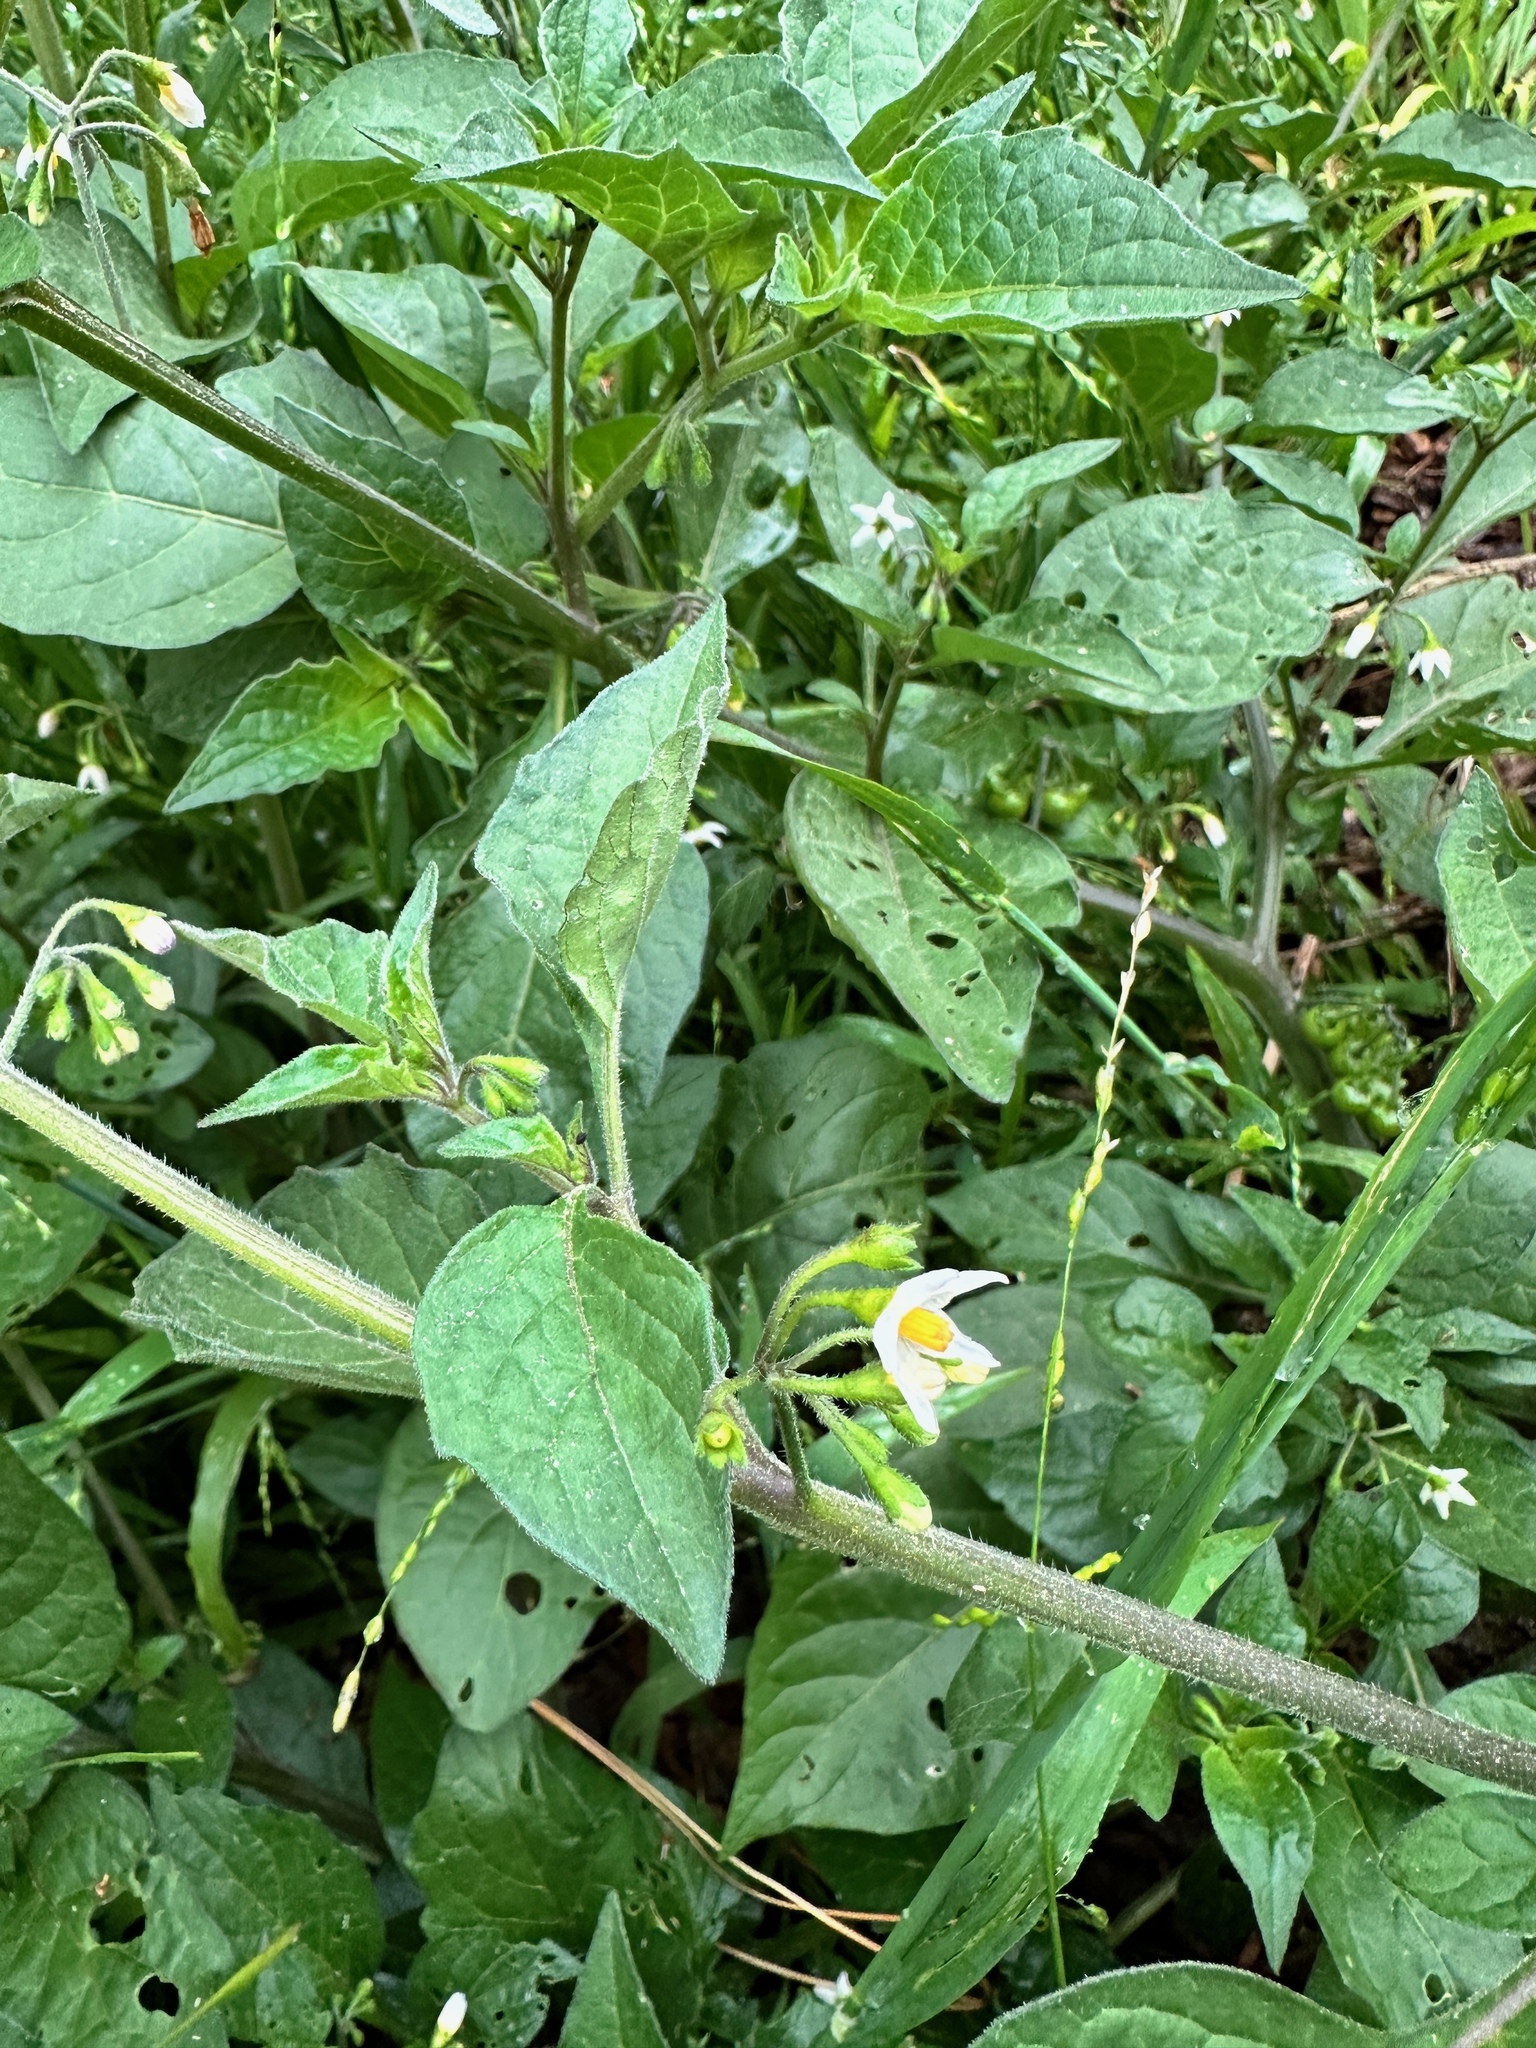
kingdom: Plantae
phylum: Tracheophyta
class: Magnoliopsida
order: Solanales
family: Solanaceae
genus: Solanum
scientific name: Solanum nigrum
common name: Black nightshade
